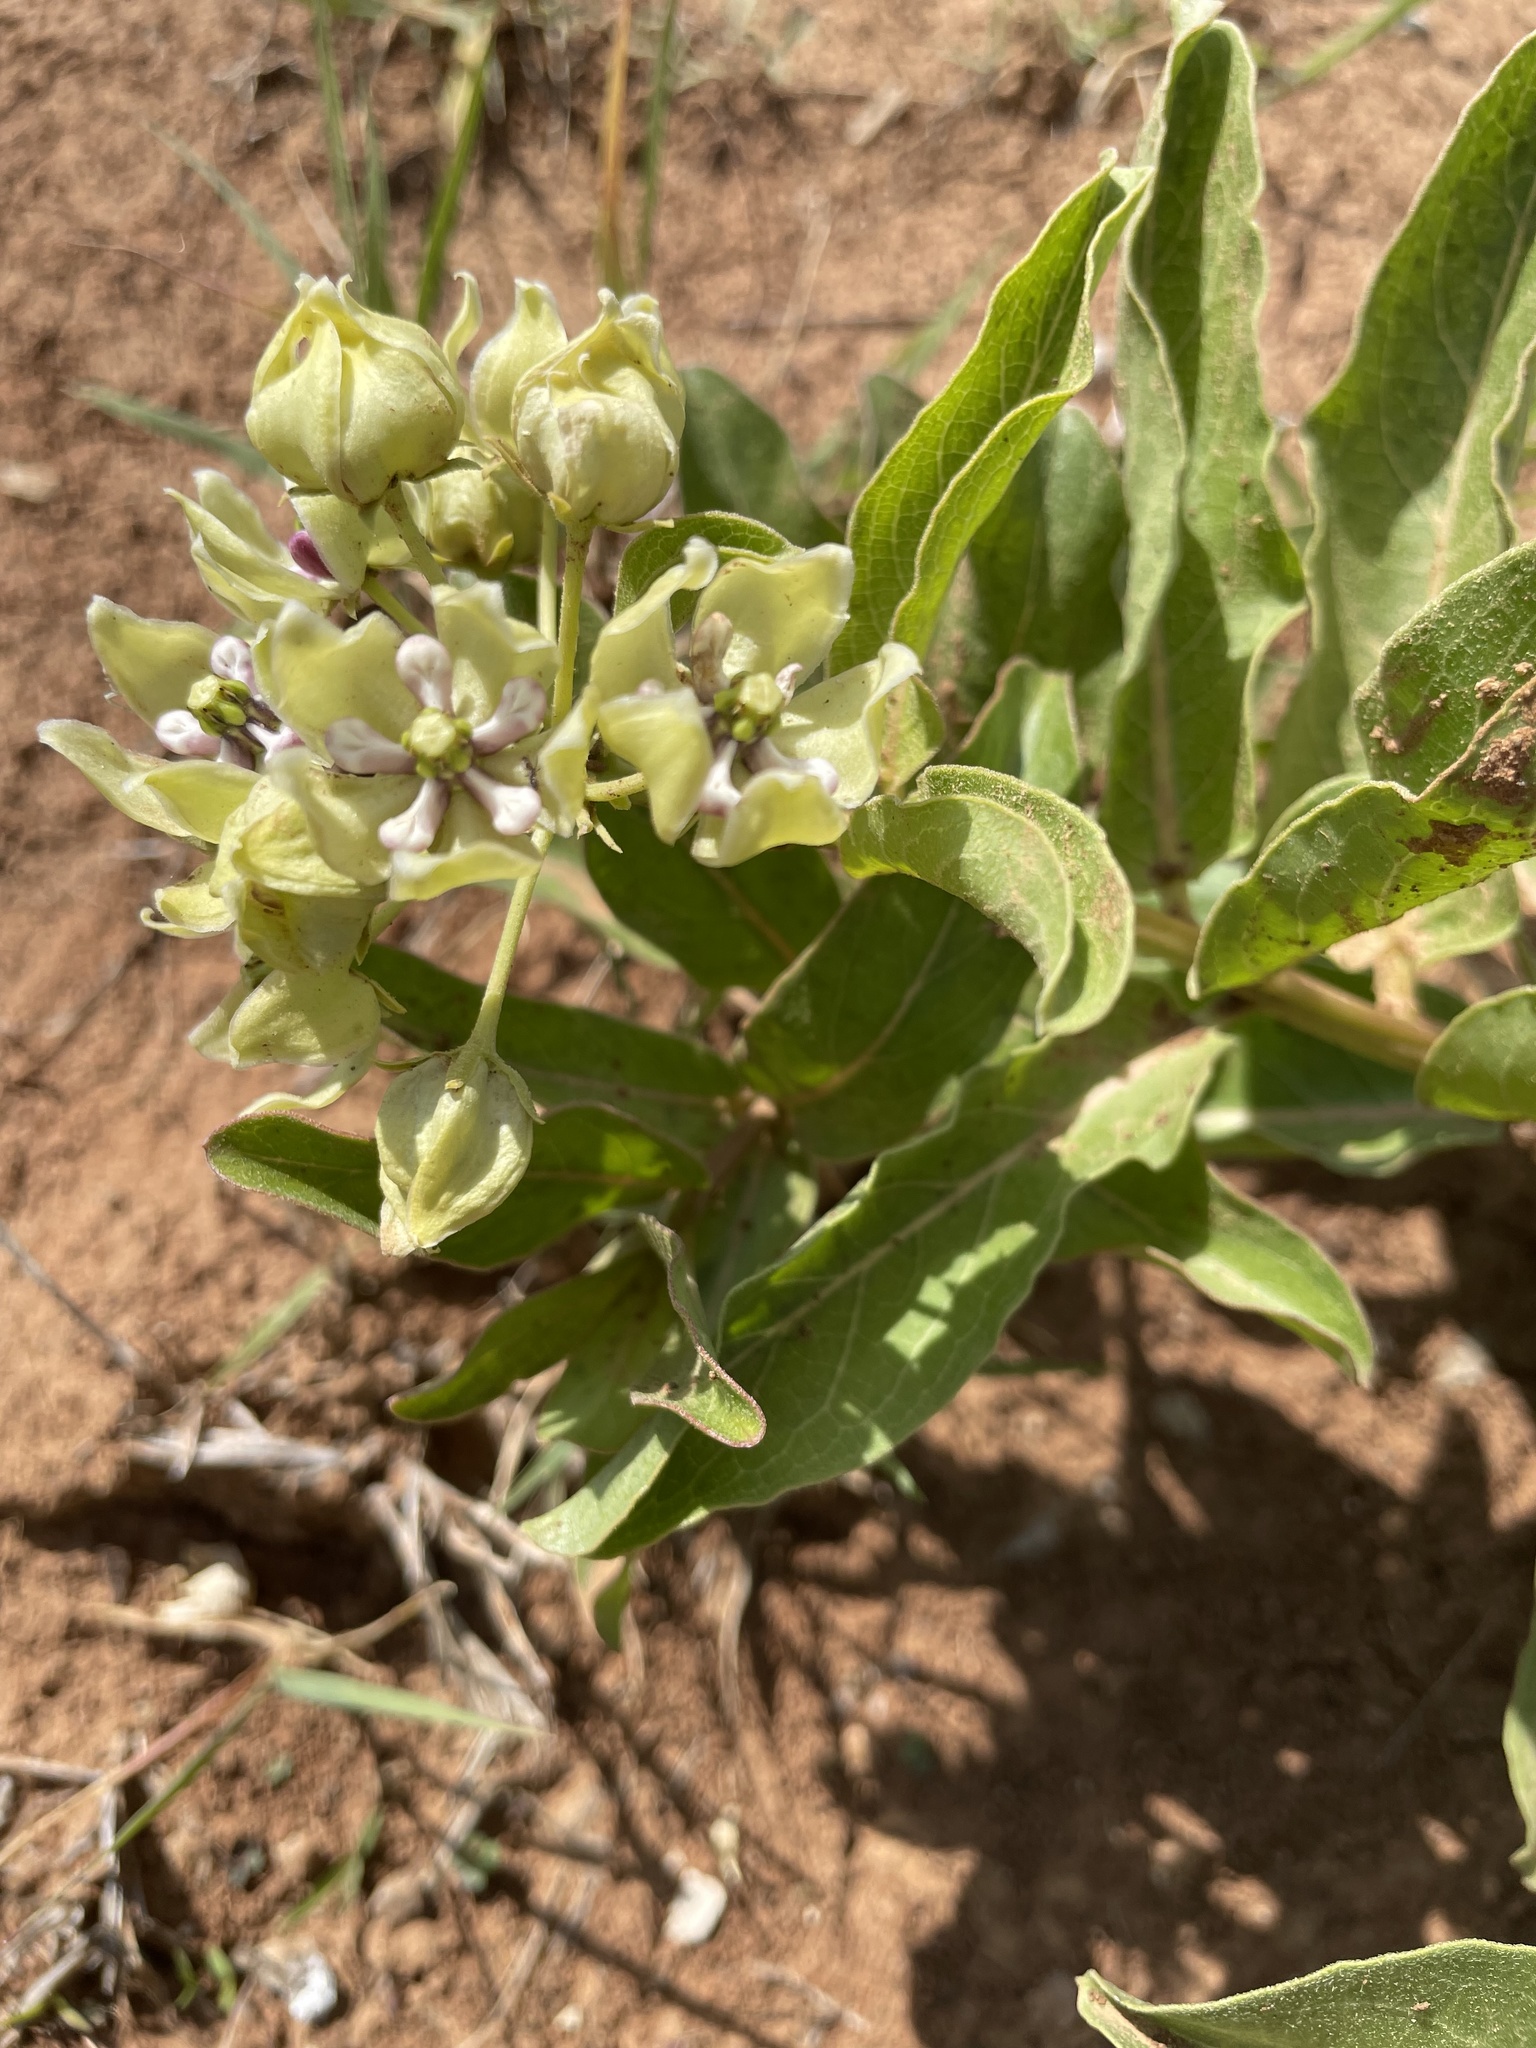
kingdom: Plantae
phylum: Tracheophyta
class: Magnoliopsida
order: Gentianales
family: Apocynaceae
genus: Asclepias
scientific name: Asclepias viridis
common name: Antelope-horns
